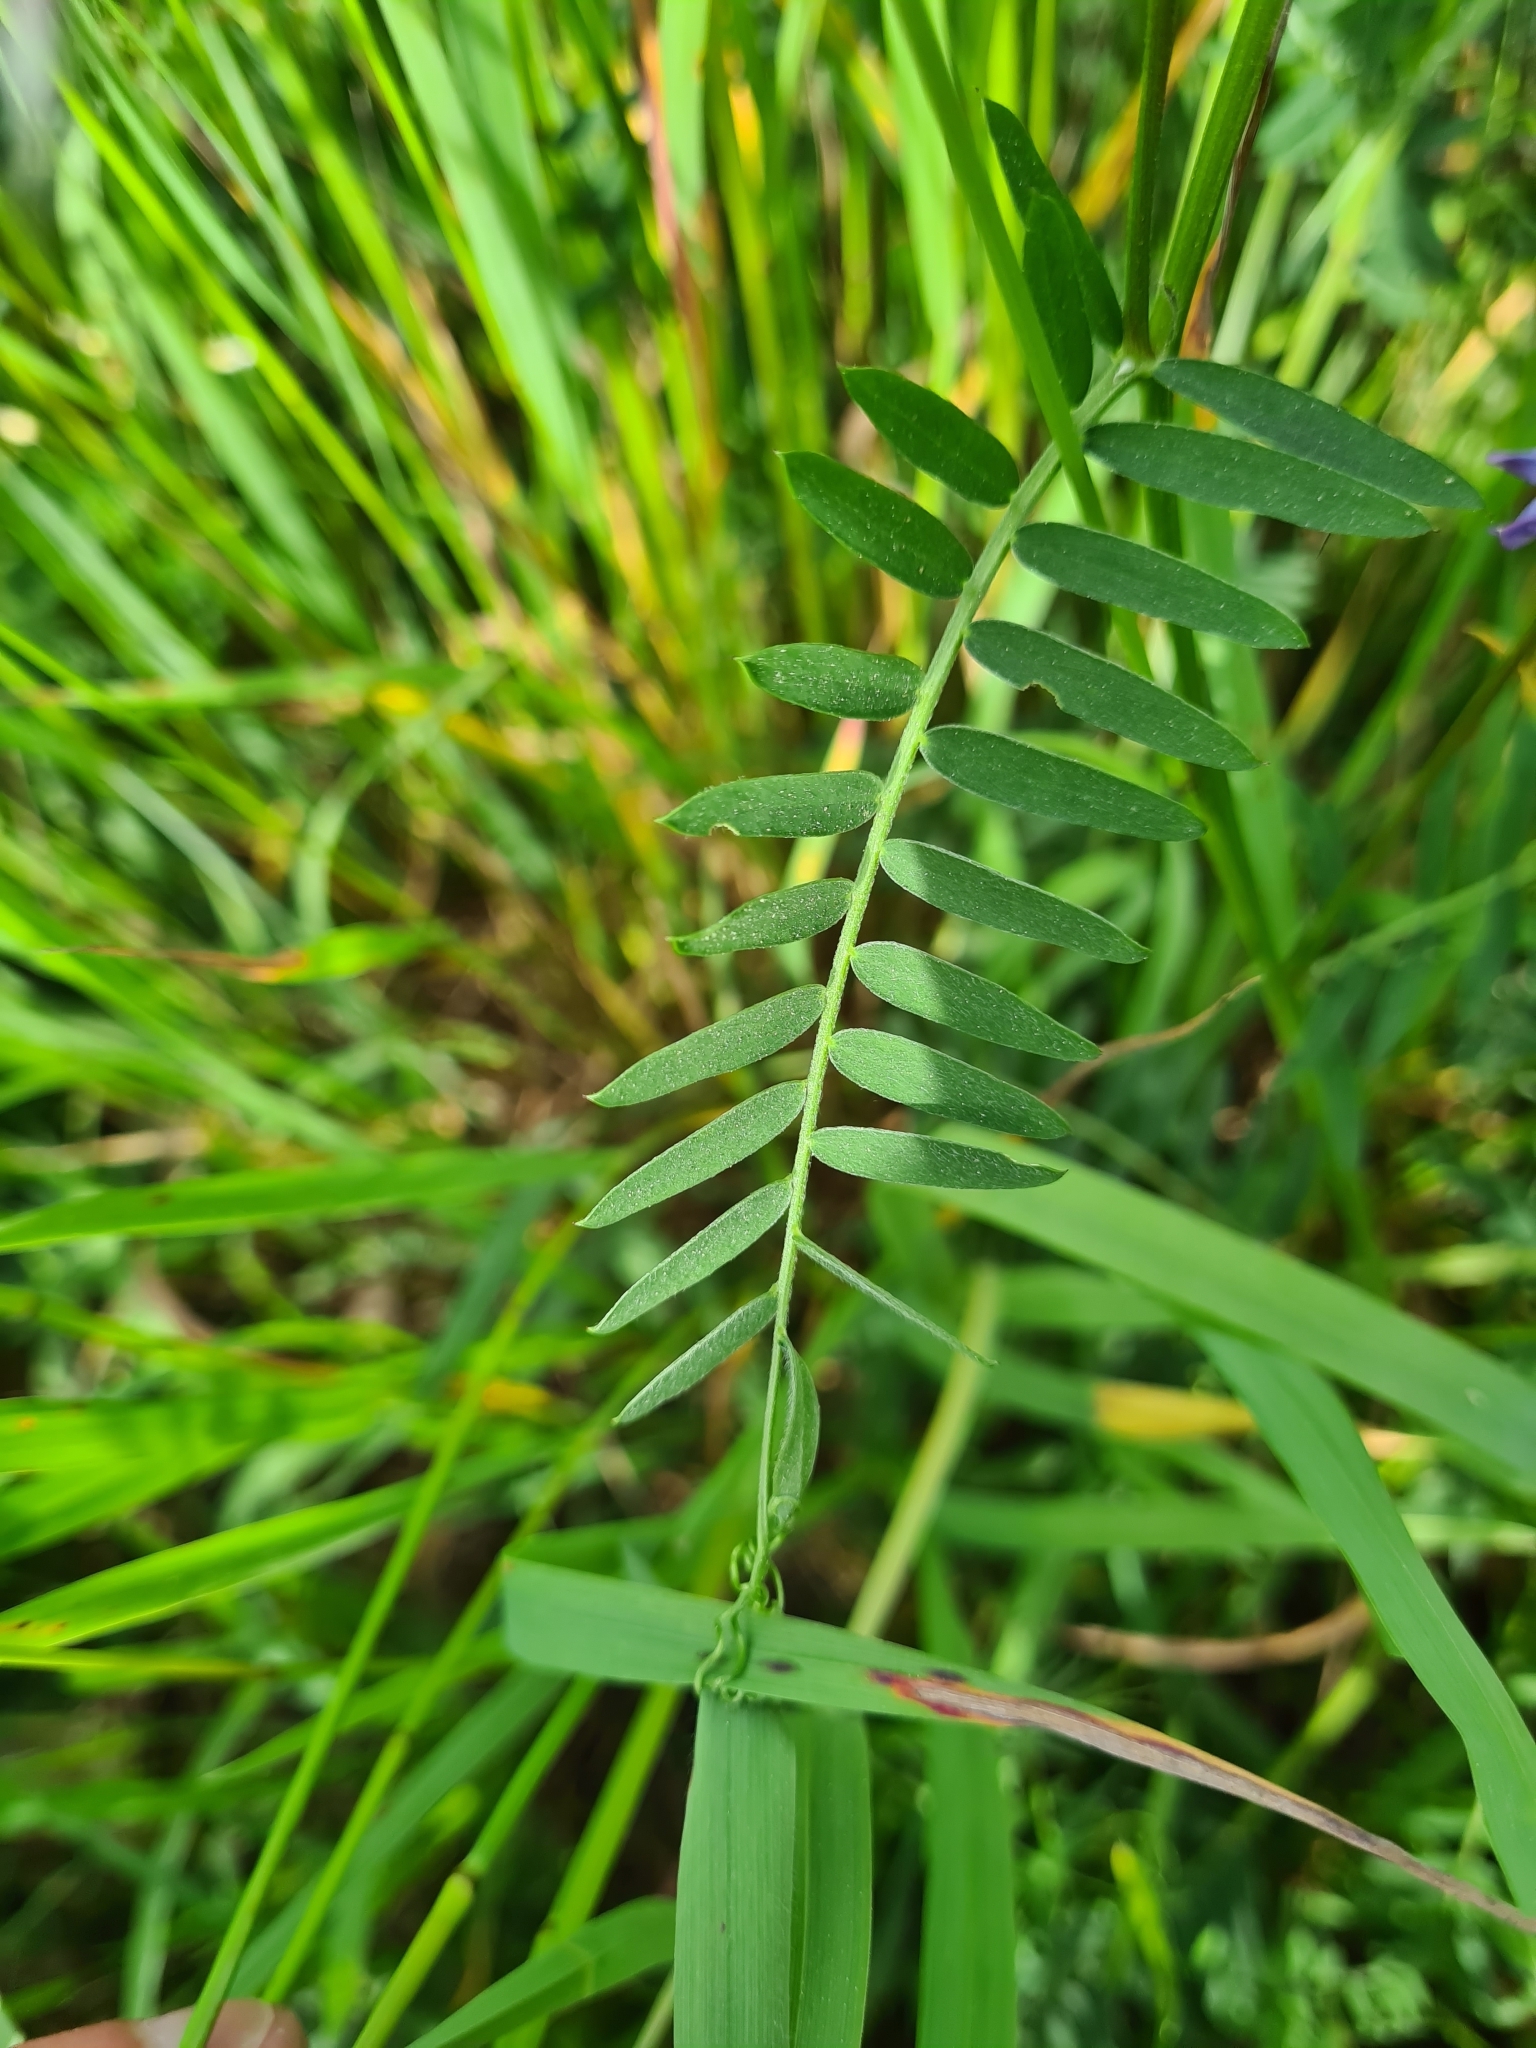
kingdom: Plantae
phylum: Tracheophyta
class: Magnoliopsida
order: Fabales
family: Fabaceae
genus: Vicia
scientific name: Vicia cracca
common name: Bird vetch
